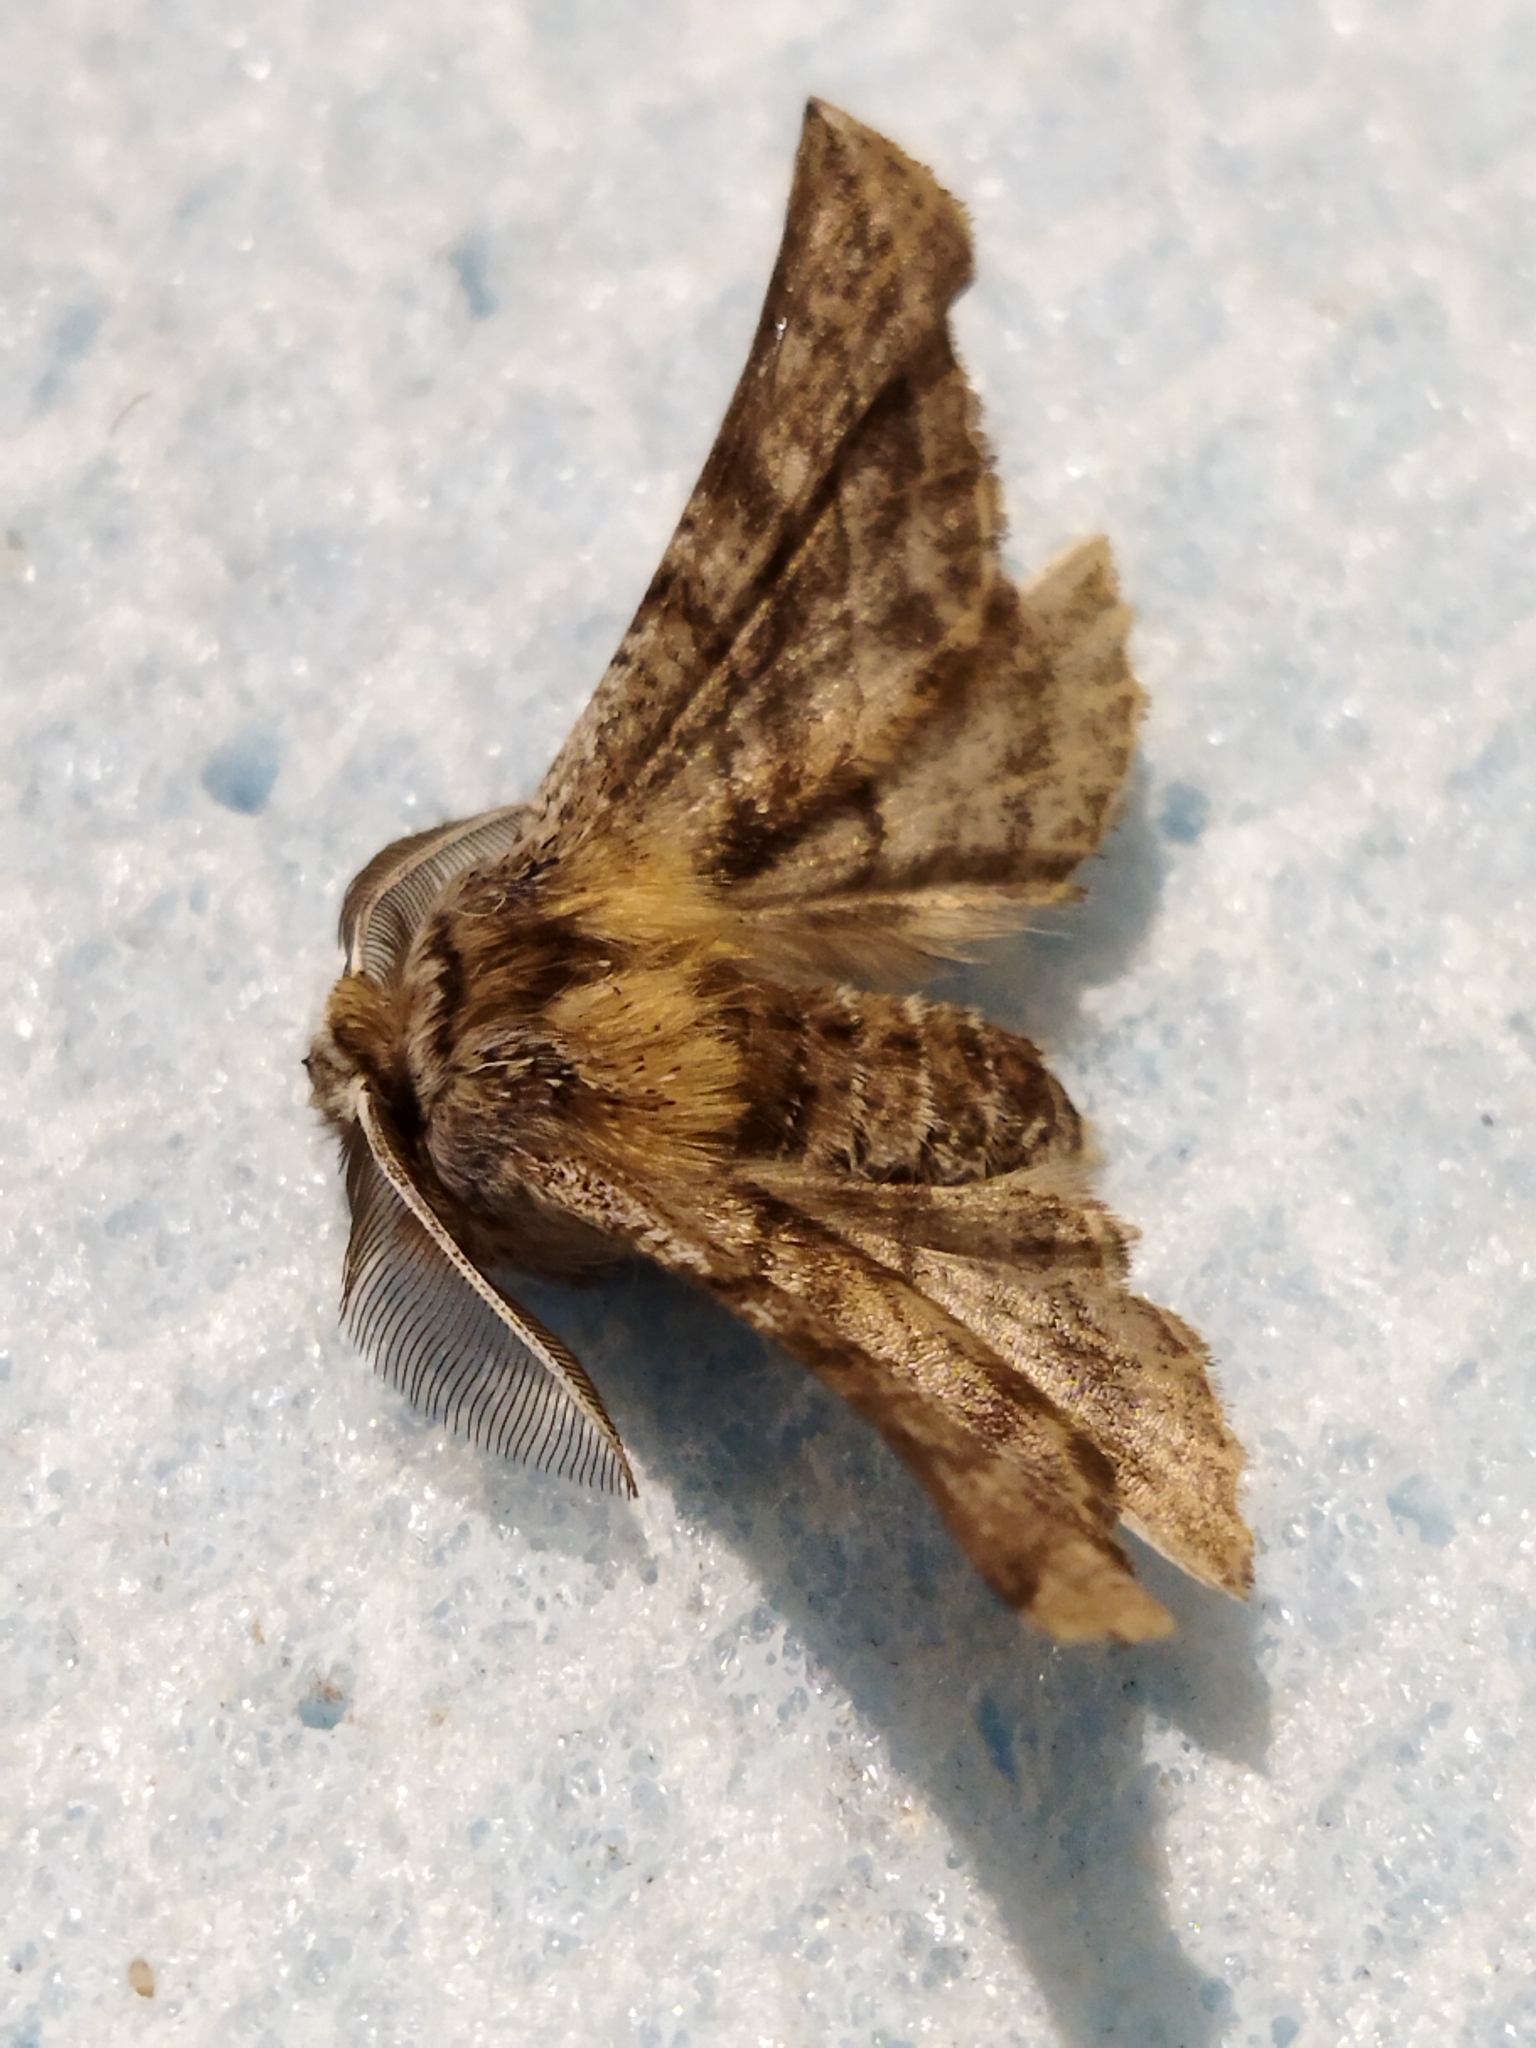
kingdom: Animalia
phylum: Arthropoda
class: Insecta
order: Lepidoptera
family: Geometridae
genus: Apochima
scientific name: Apochima flabellaria
